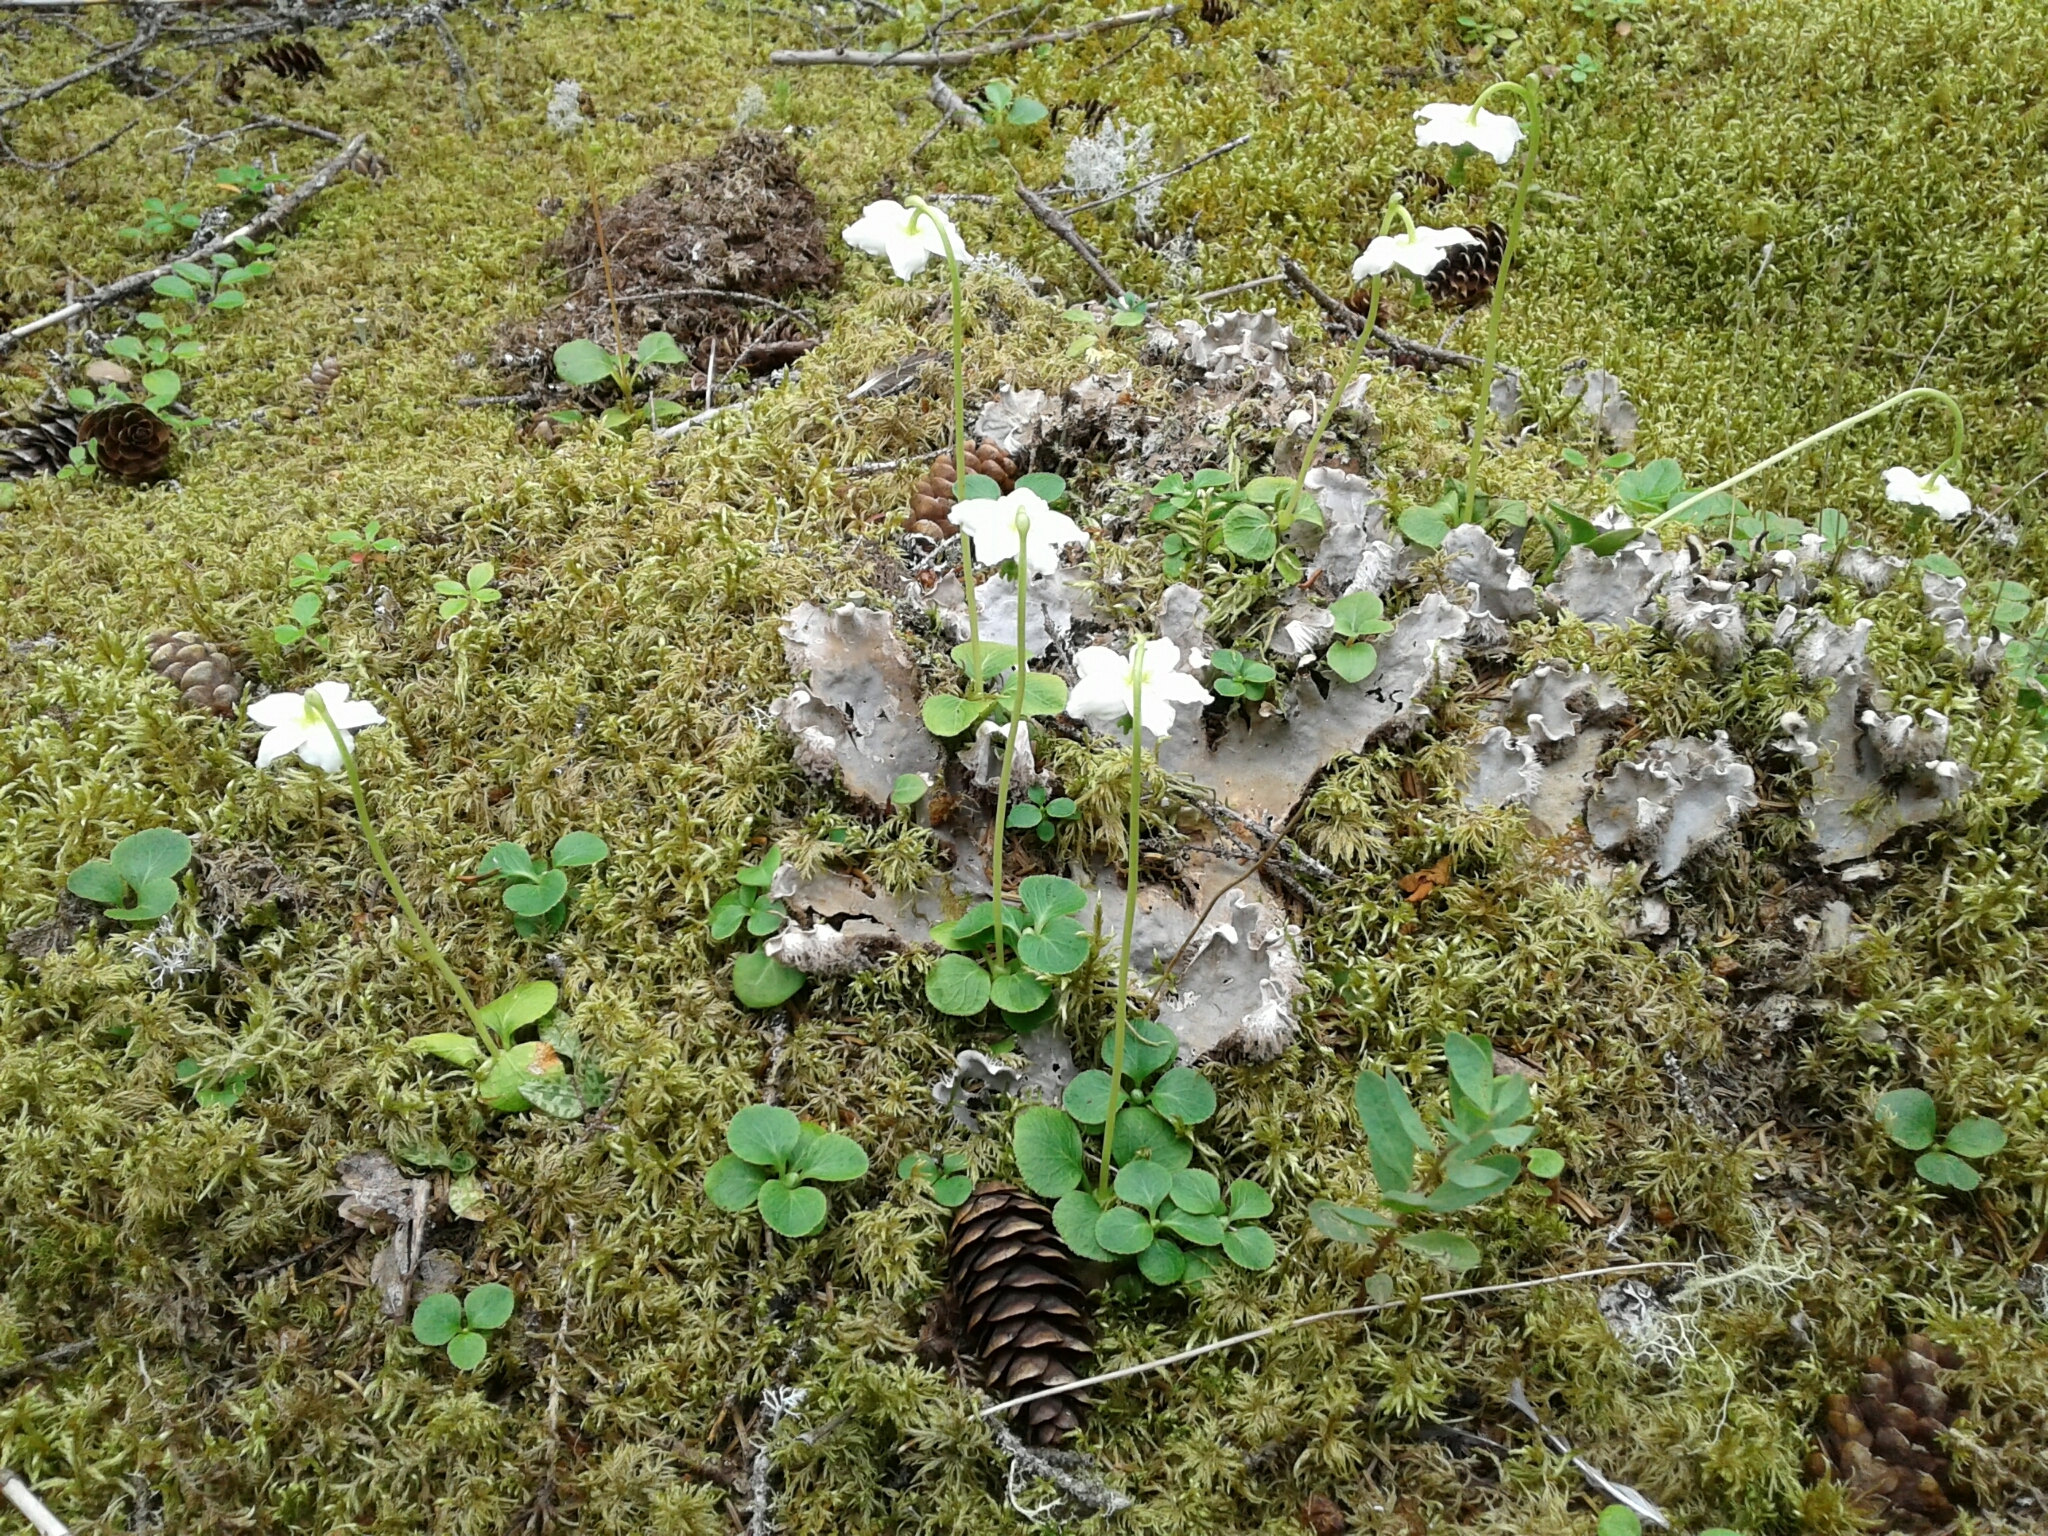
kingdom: Plantae
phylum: Tracheophyta
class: Magnoliopsida
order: Ericales
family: Ericaceae
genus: Moneses
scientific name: Moneses uniflora
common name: One-flowered wintergreen
